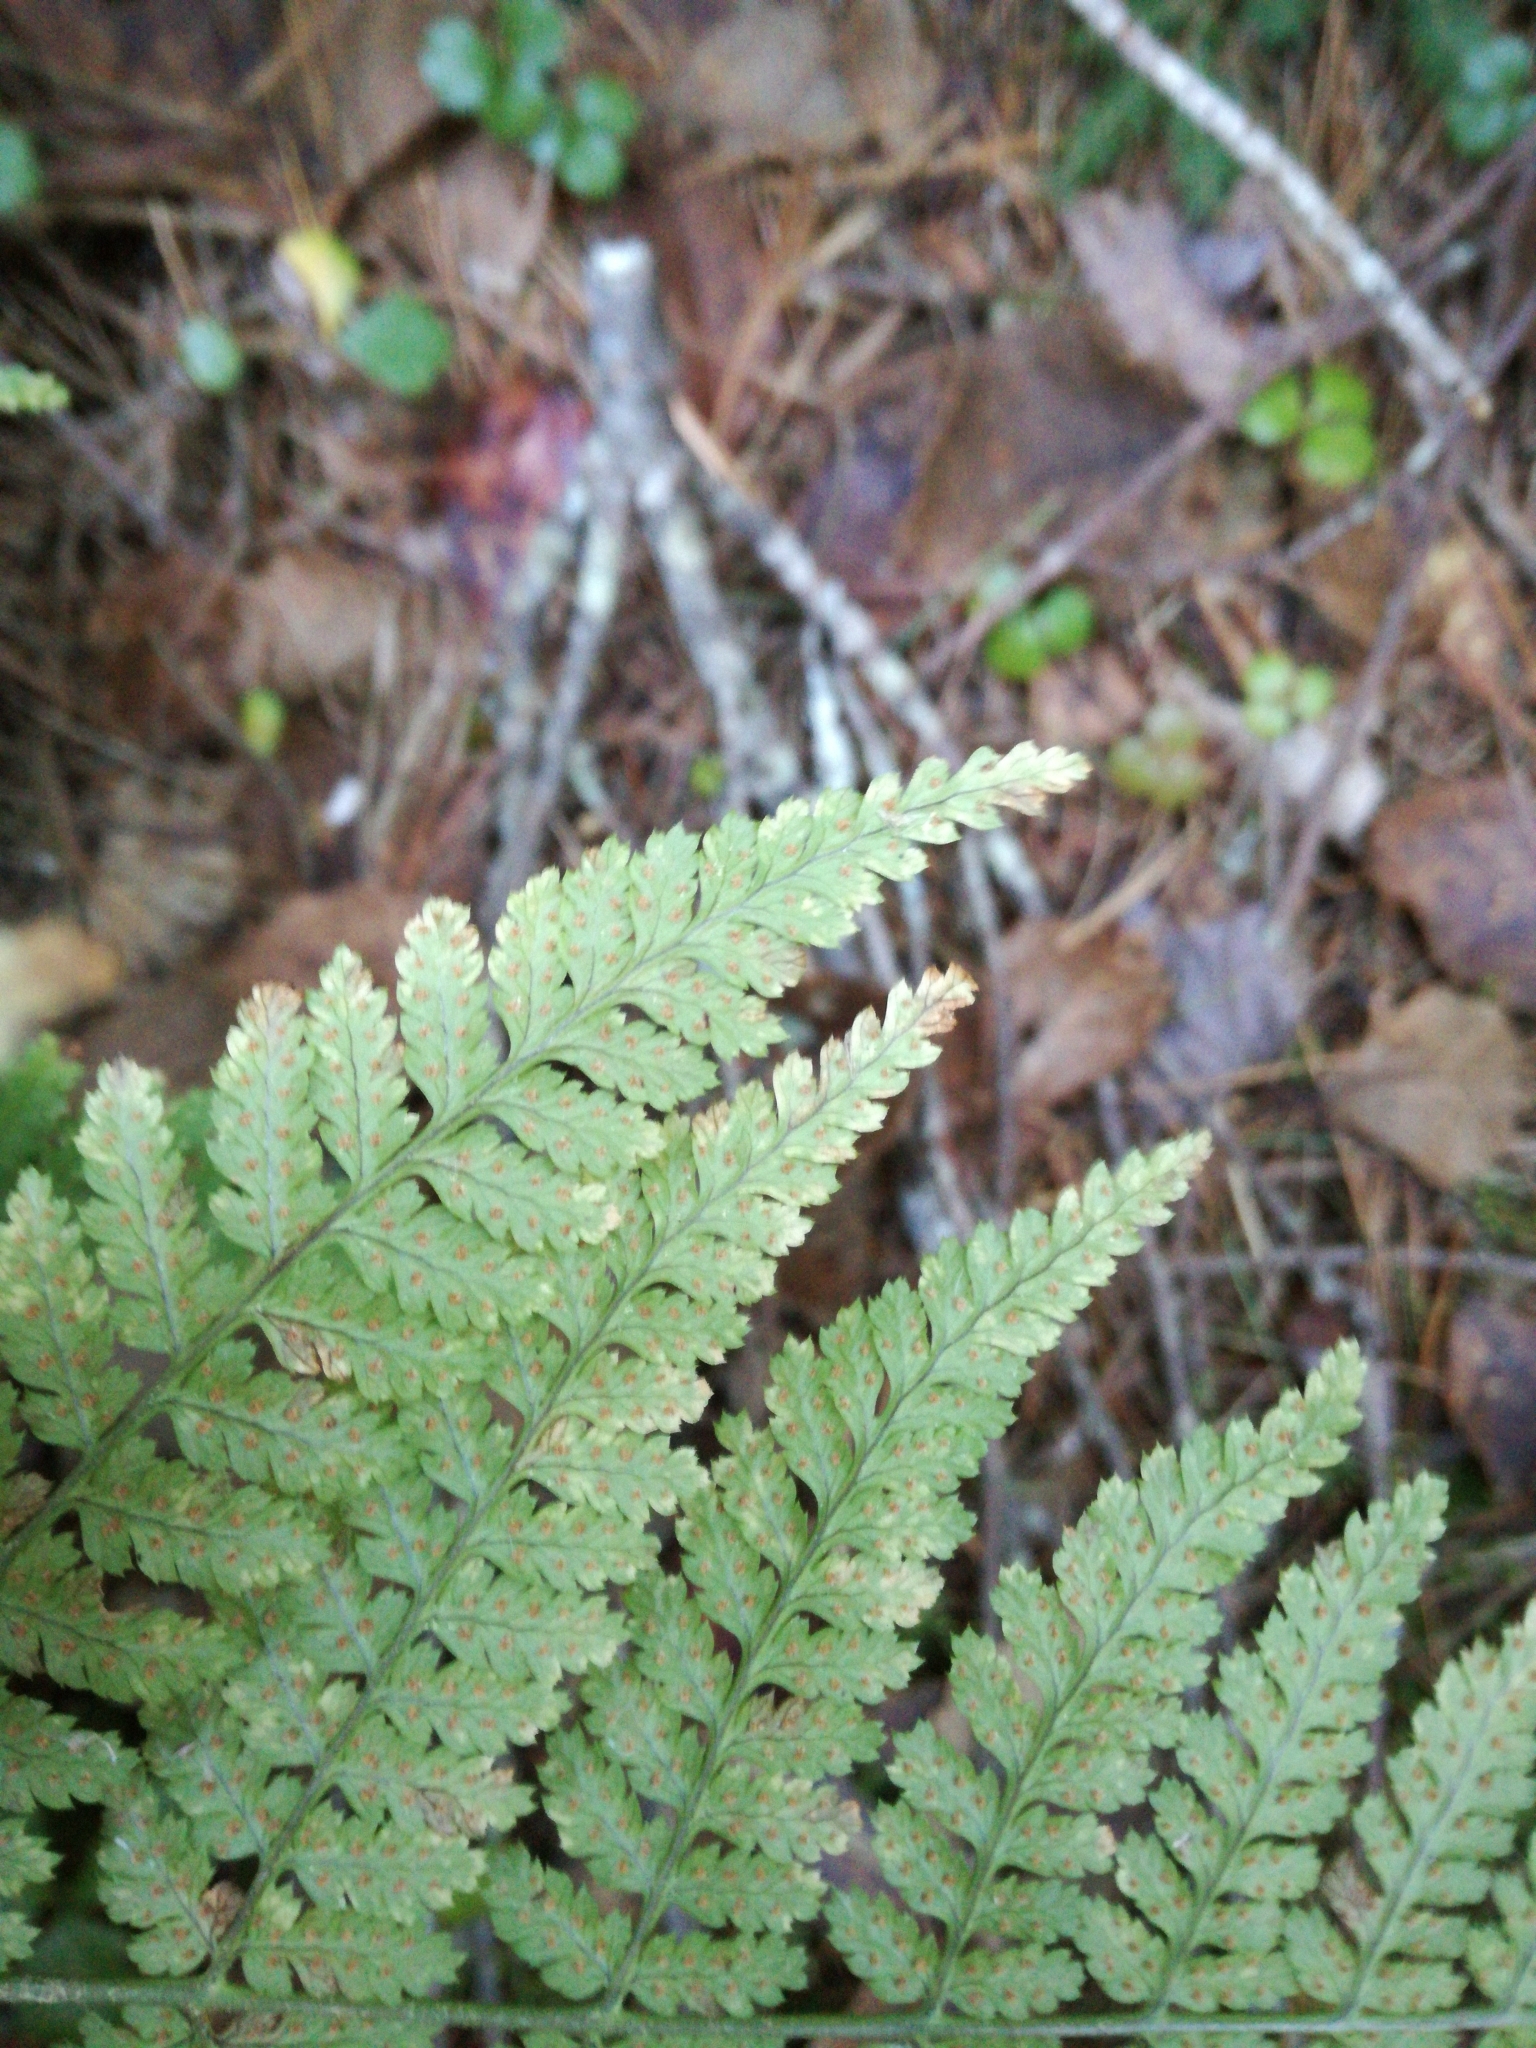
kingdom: Plantae
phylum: Tracheophyta
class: Polypodiopsida
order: Polypodiales
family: Dryopteridaceae
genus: Dryopteris
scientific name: Dryopteris intermedia
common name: Evergreen wood fern
